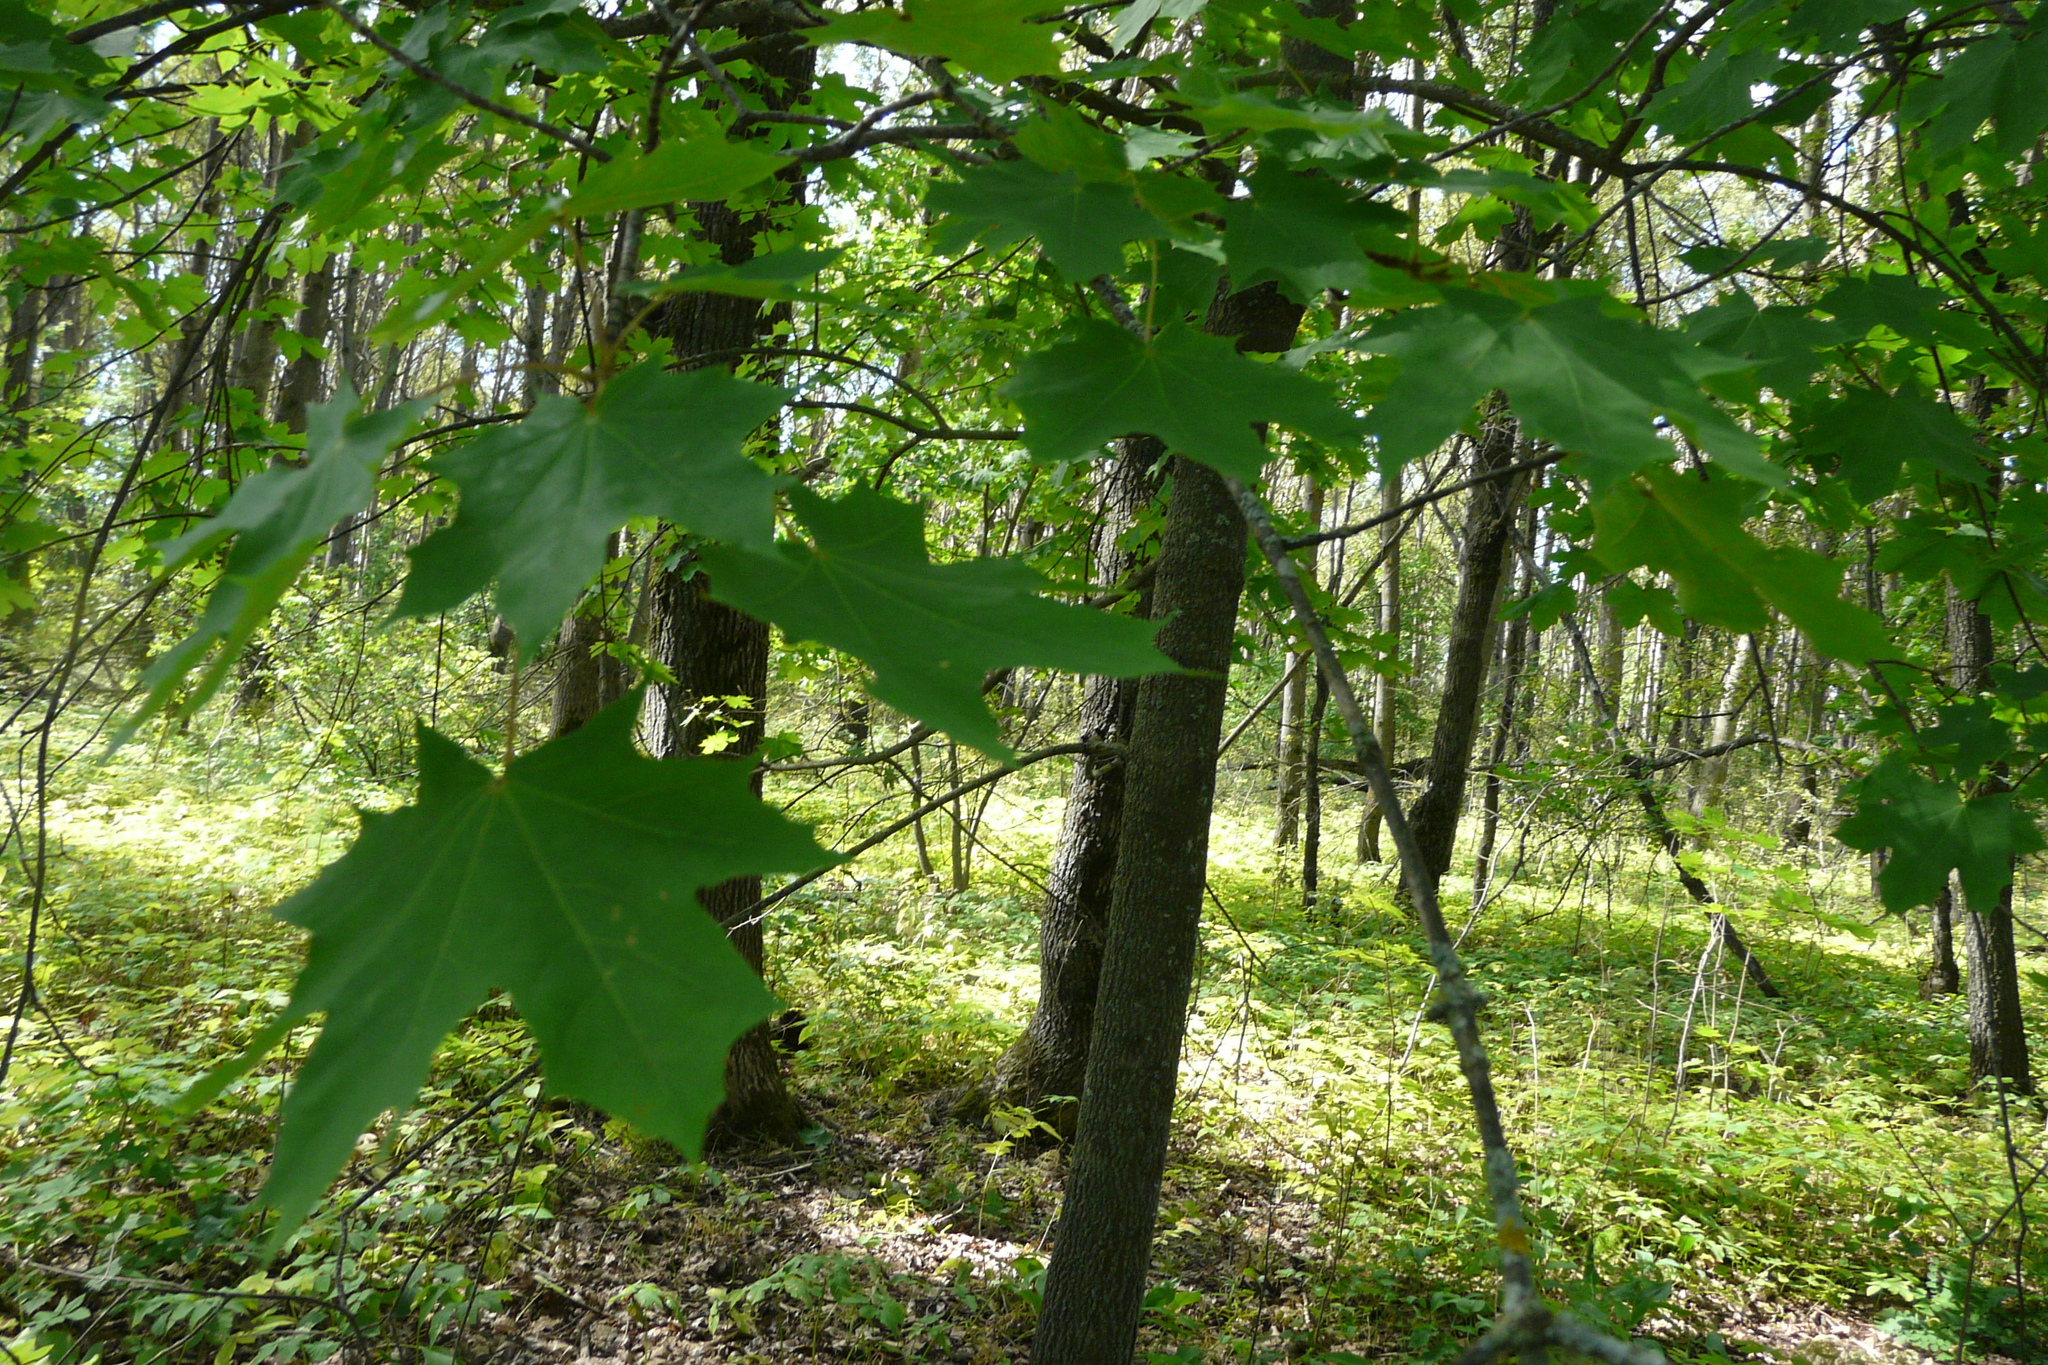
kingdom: Plantae
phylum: Tracheophyta
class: Magnoliopsida
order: Sapindales
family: Sapindaceae
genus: Acer
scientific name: Acer platanoides
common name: Norway maple
